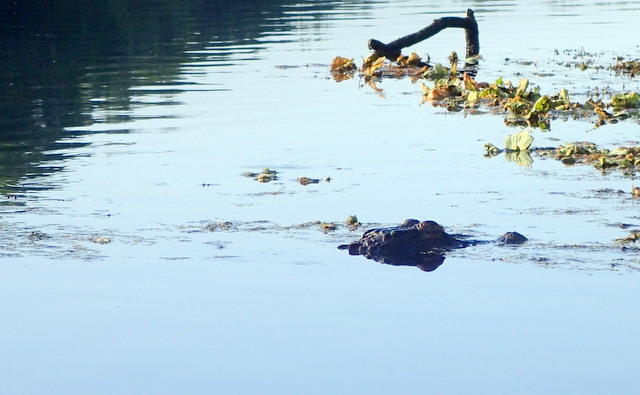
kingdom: Animalia
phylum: Chordata
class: Crocodylia
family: Alligatoridae
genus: Alligator
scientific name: Alligator mississippiensis
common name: American alligator
